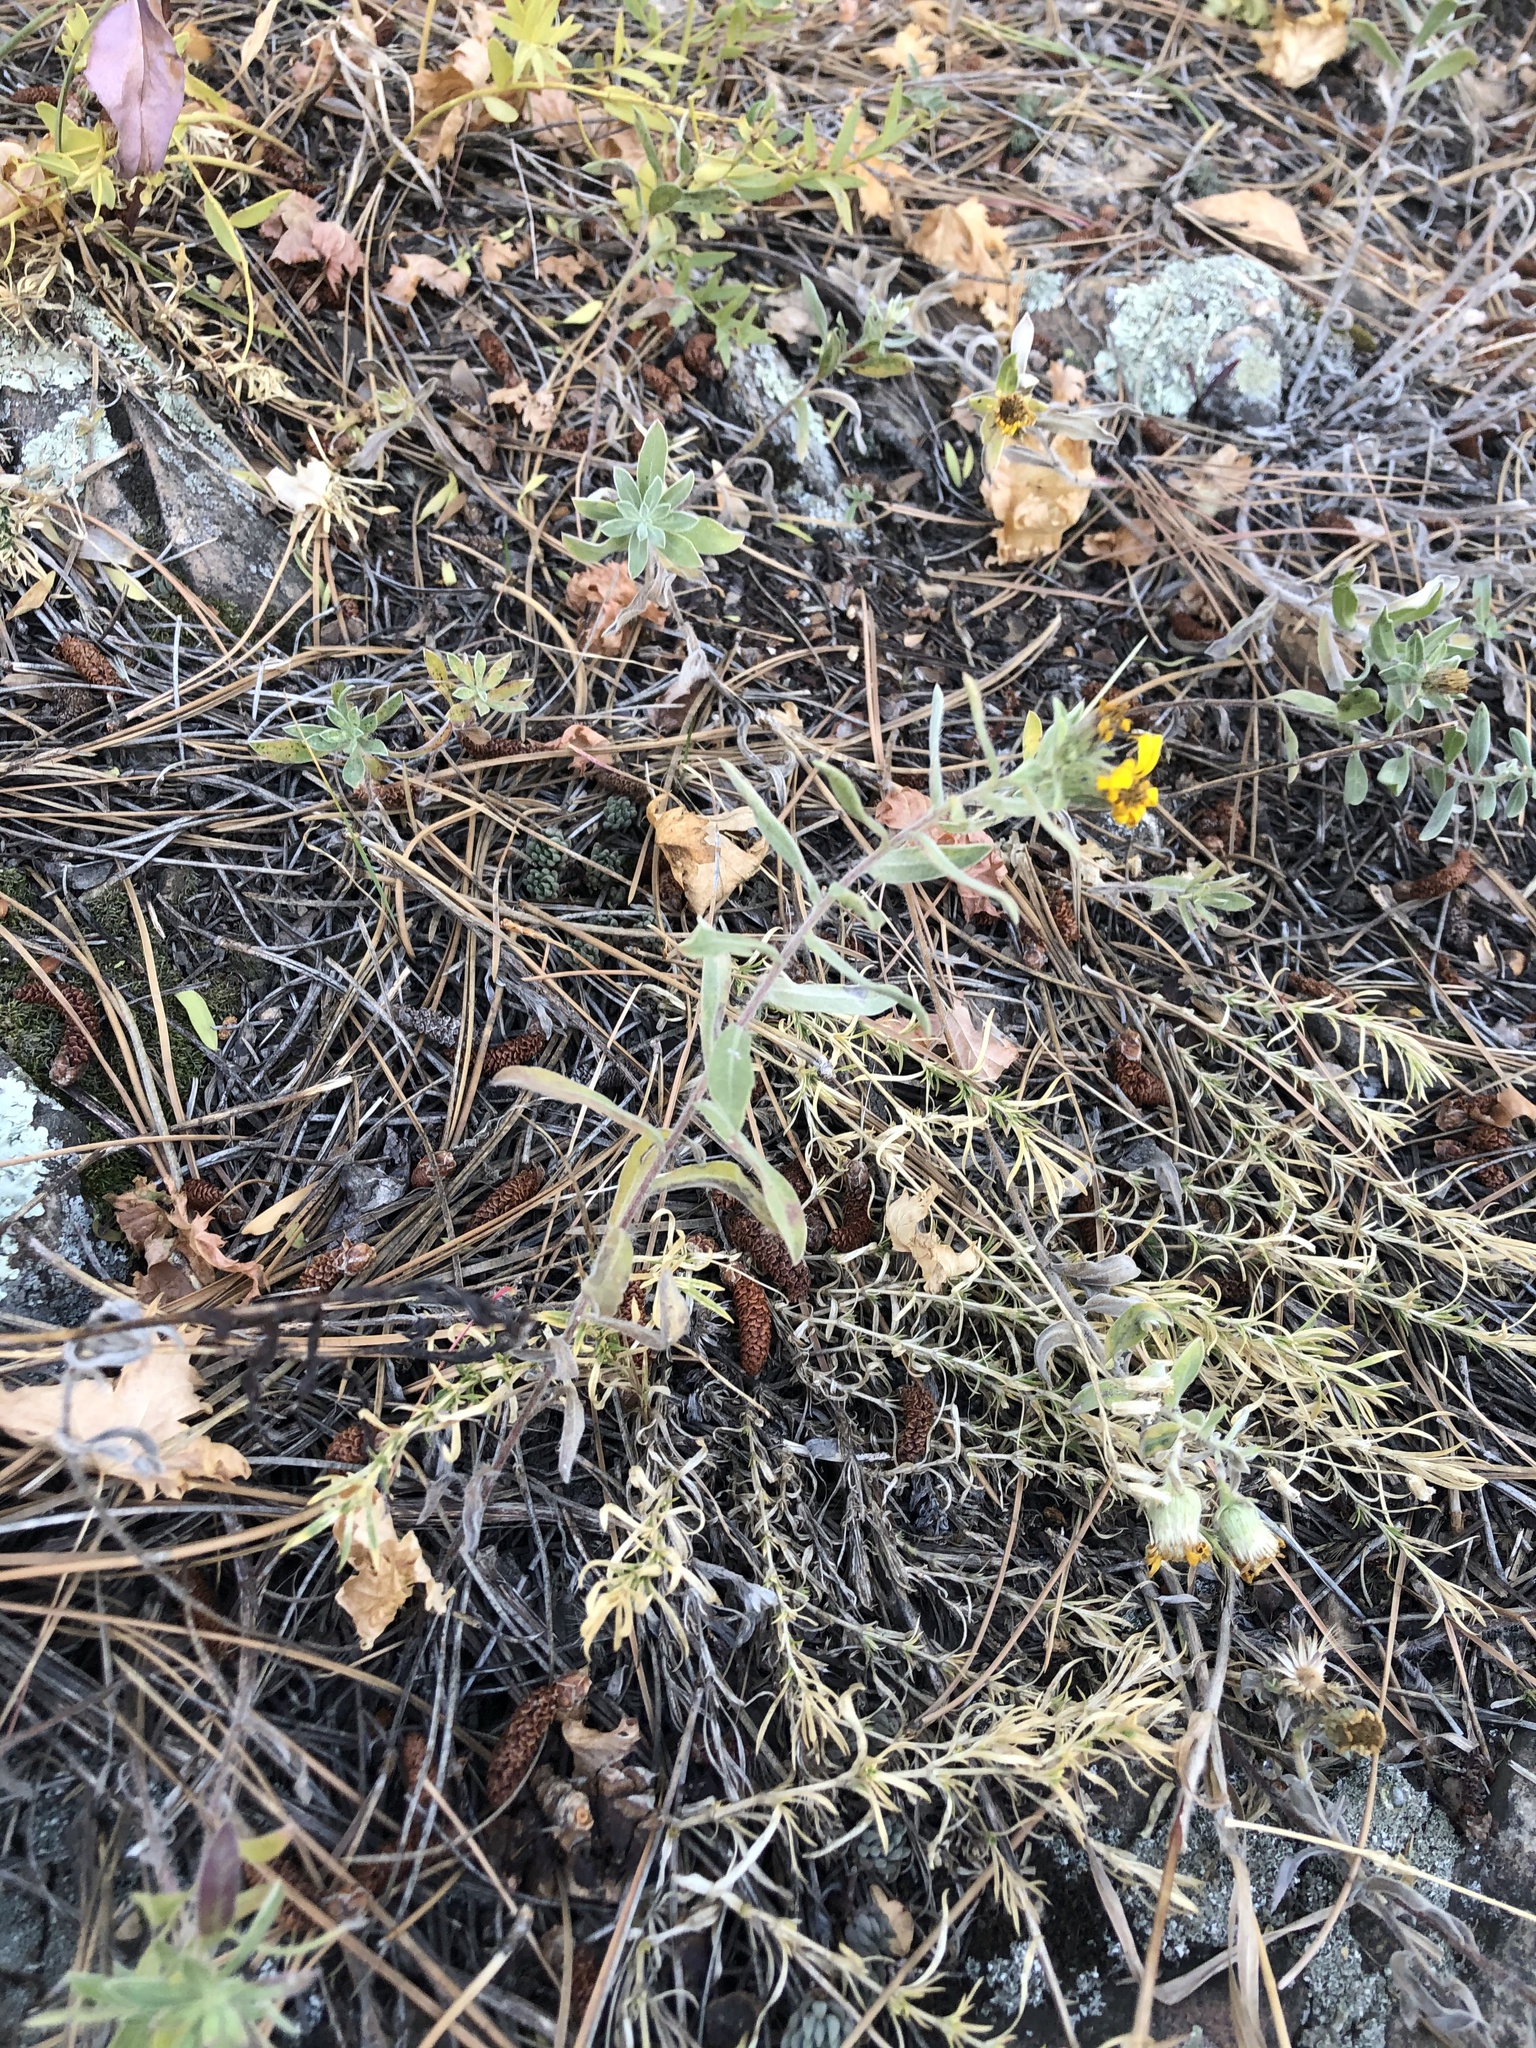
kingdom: Plantae
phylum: Tracheophyta
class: Magnoliopsida
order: Asterales
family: Asteraceae
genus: Heterotheca
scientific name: Heterotheca villosa
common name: Hairy false goldenaster
